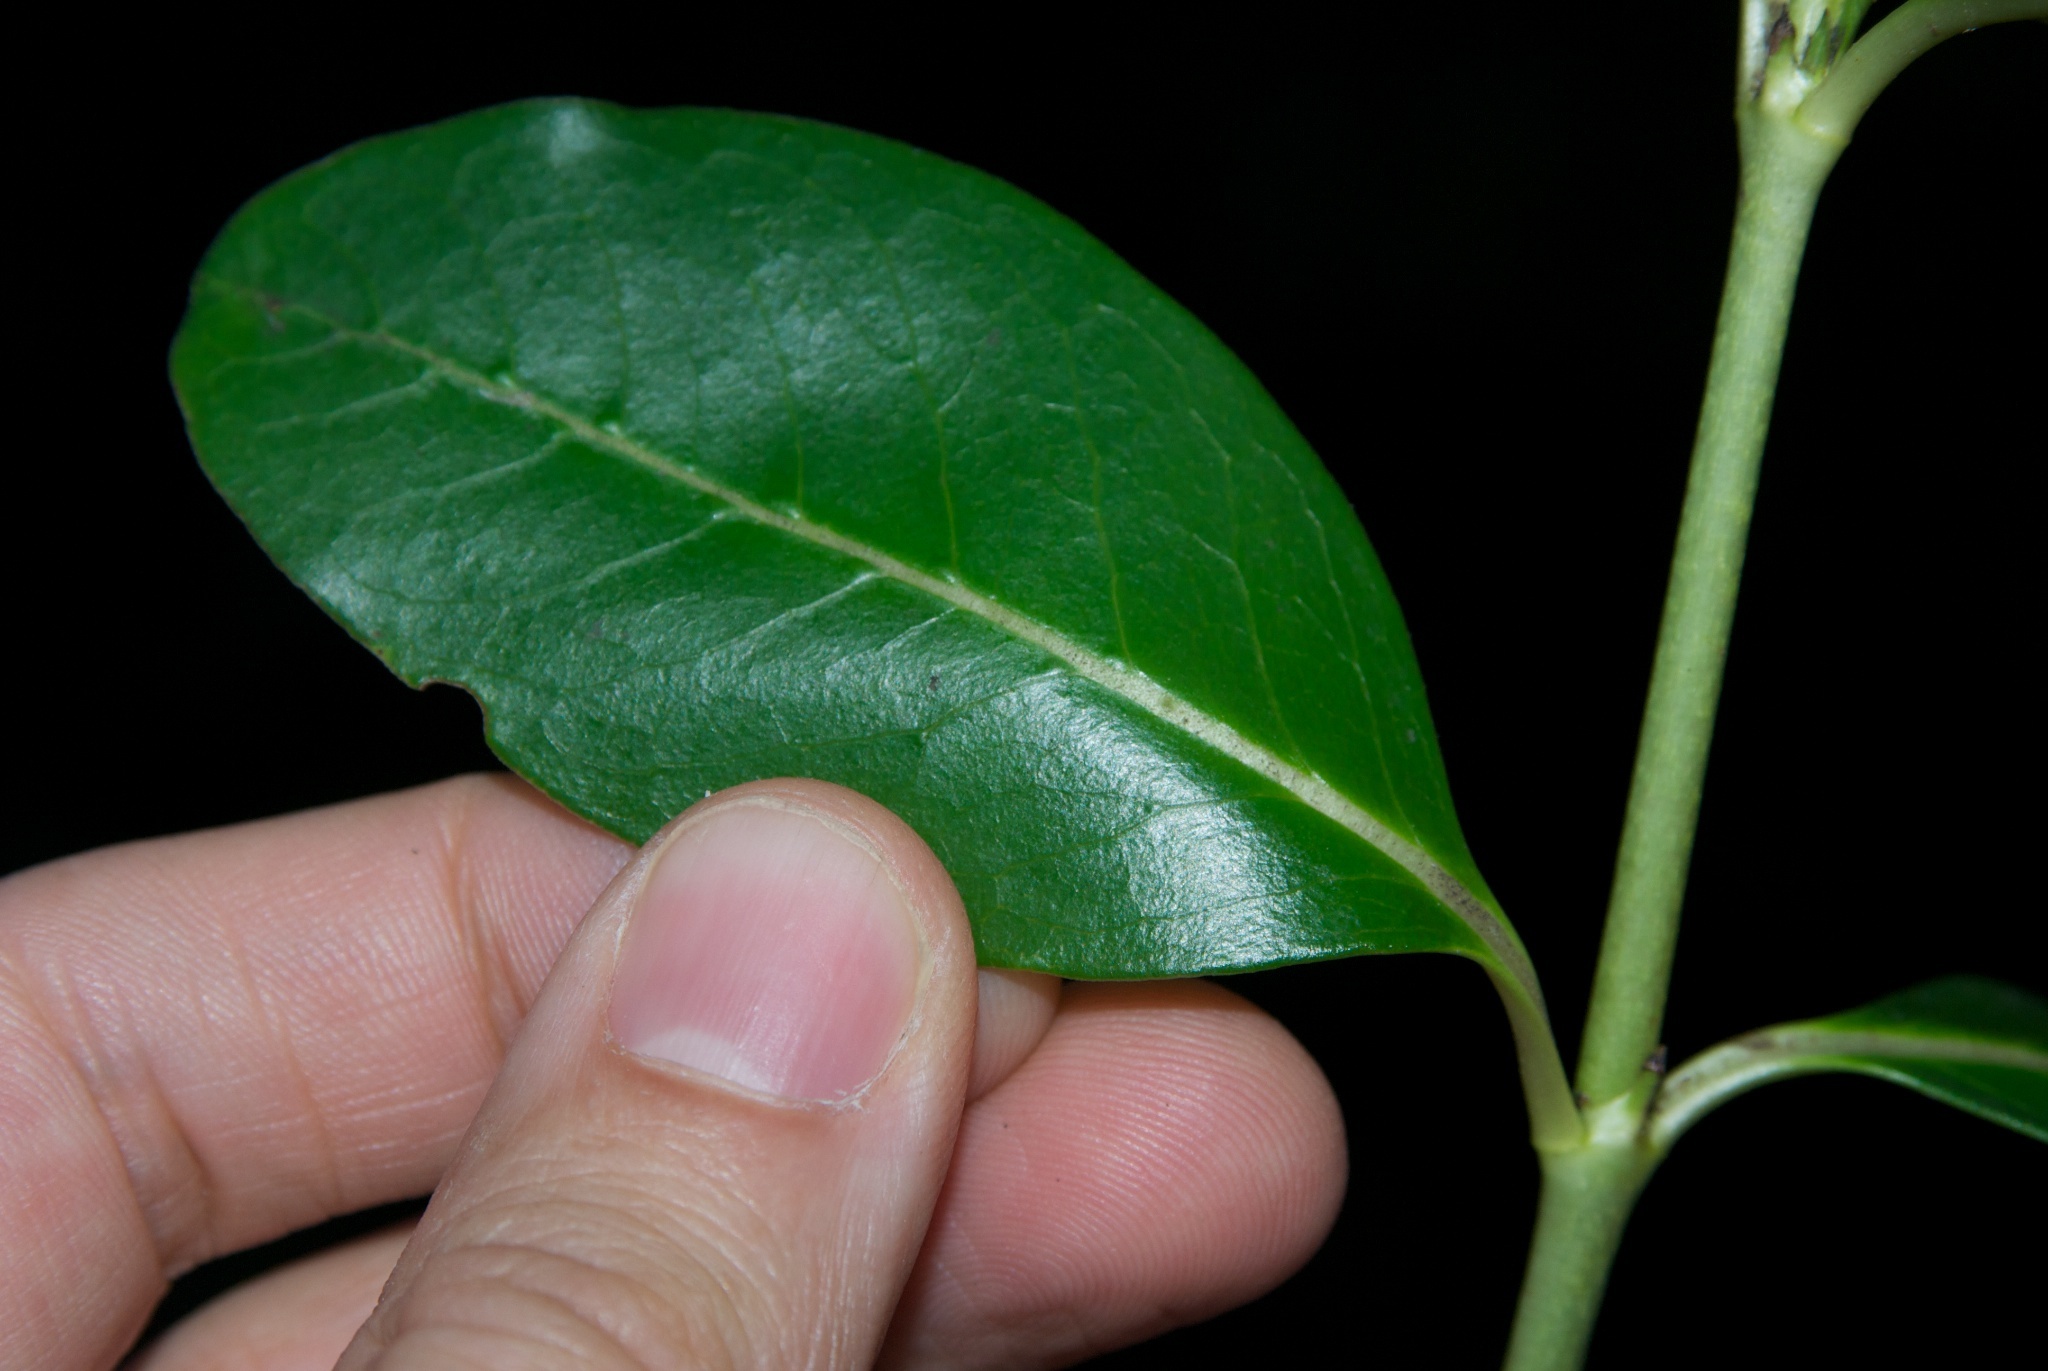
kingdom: Plantae
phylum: Tracheophyta
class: Magnoliopsida
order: Gentianales
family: Rubiaceae
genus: Coprosma
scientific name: Coprosma robusta
